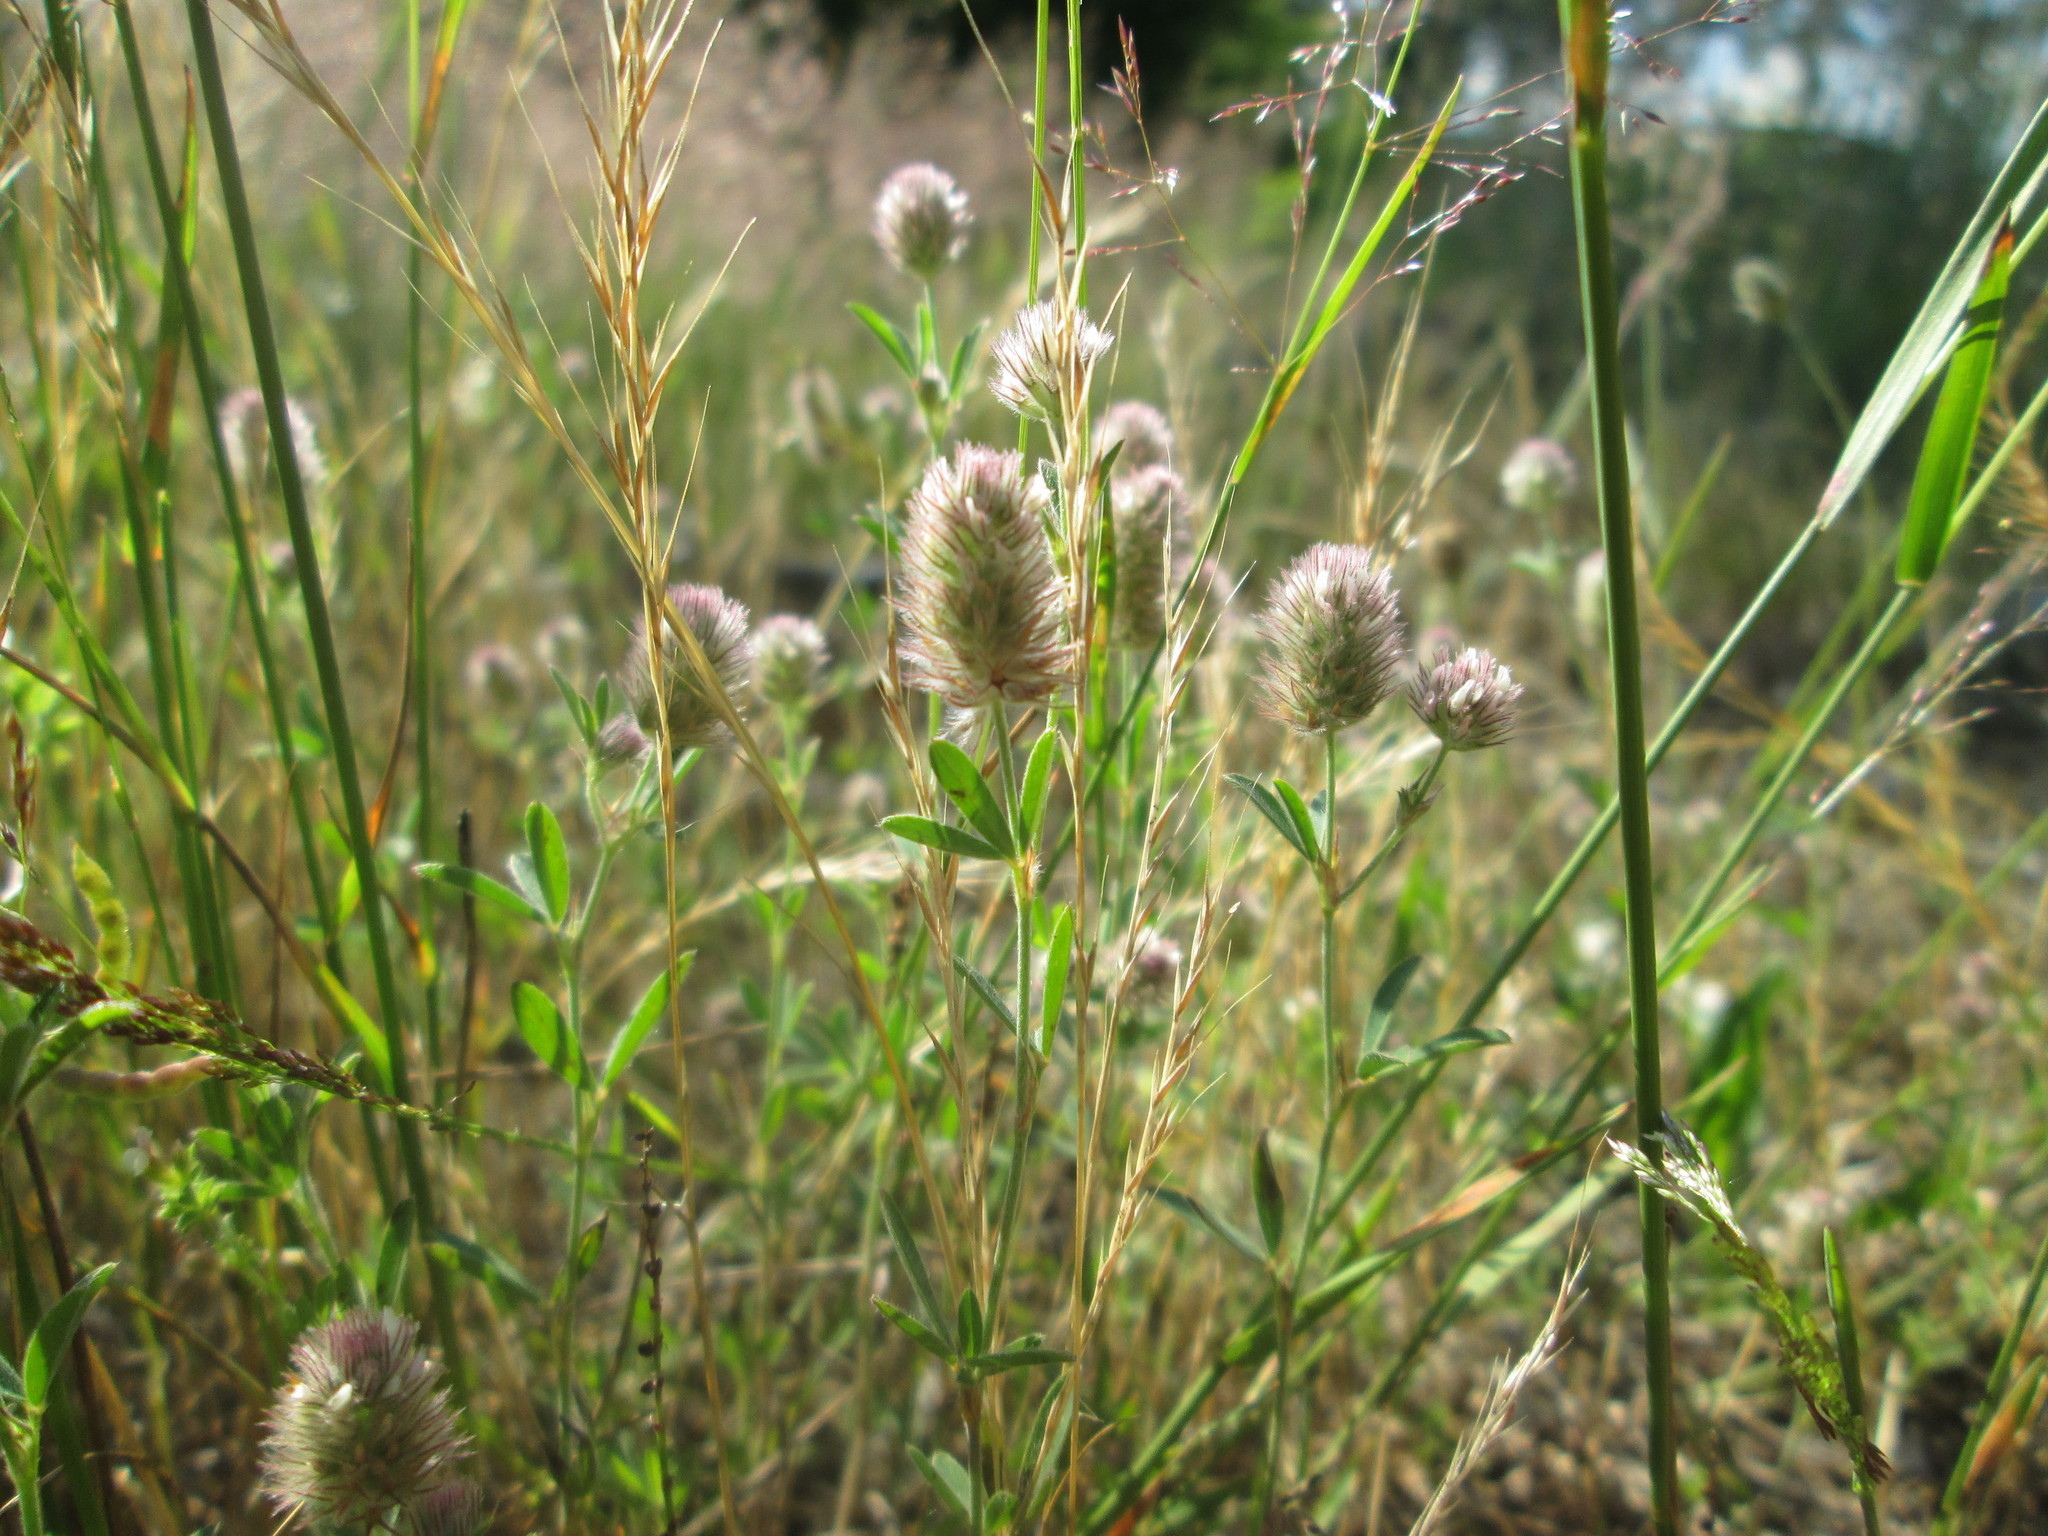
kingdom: Plantae
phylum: Tracheophyta
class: Magnoliopsida
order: Fabales
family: Fabaceae
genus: Trifolium
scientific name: Trifolium arvense
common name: Hare's-foot clover
